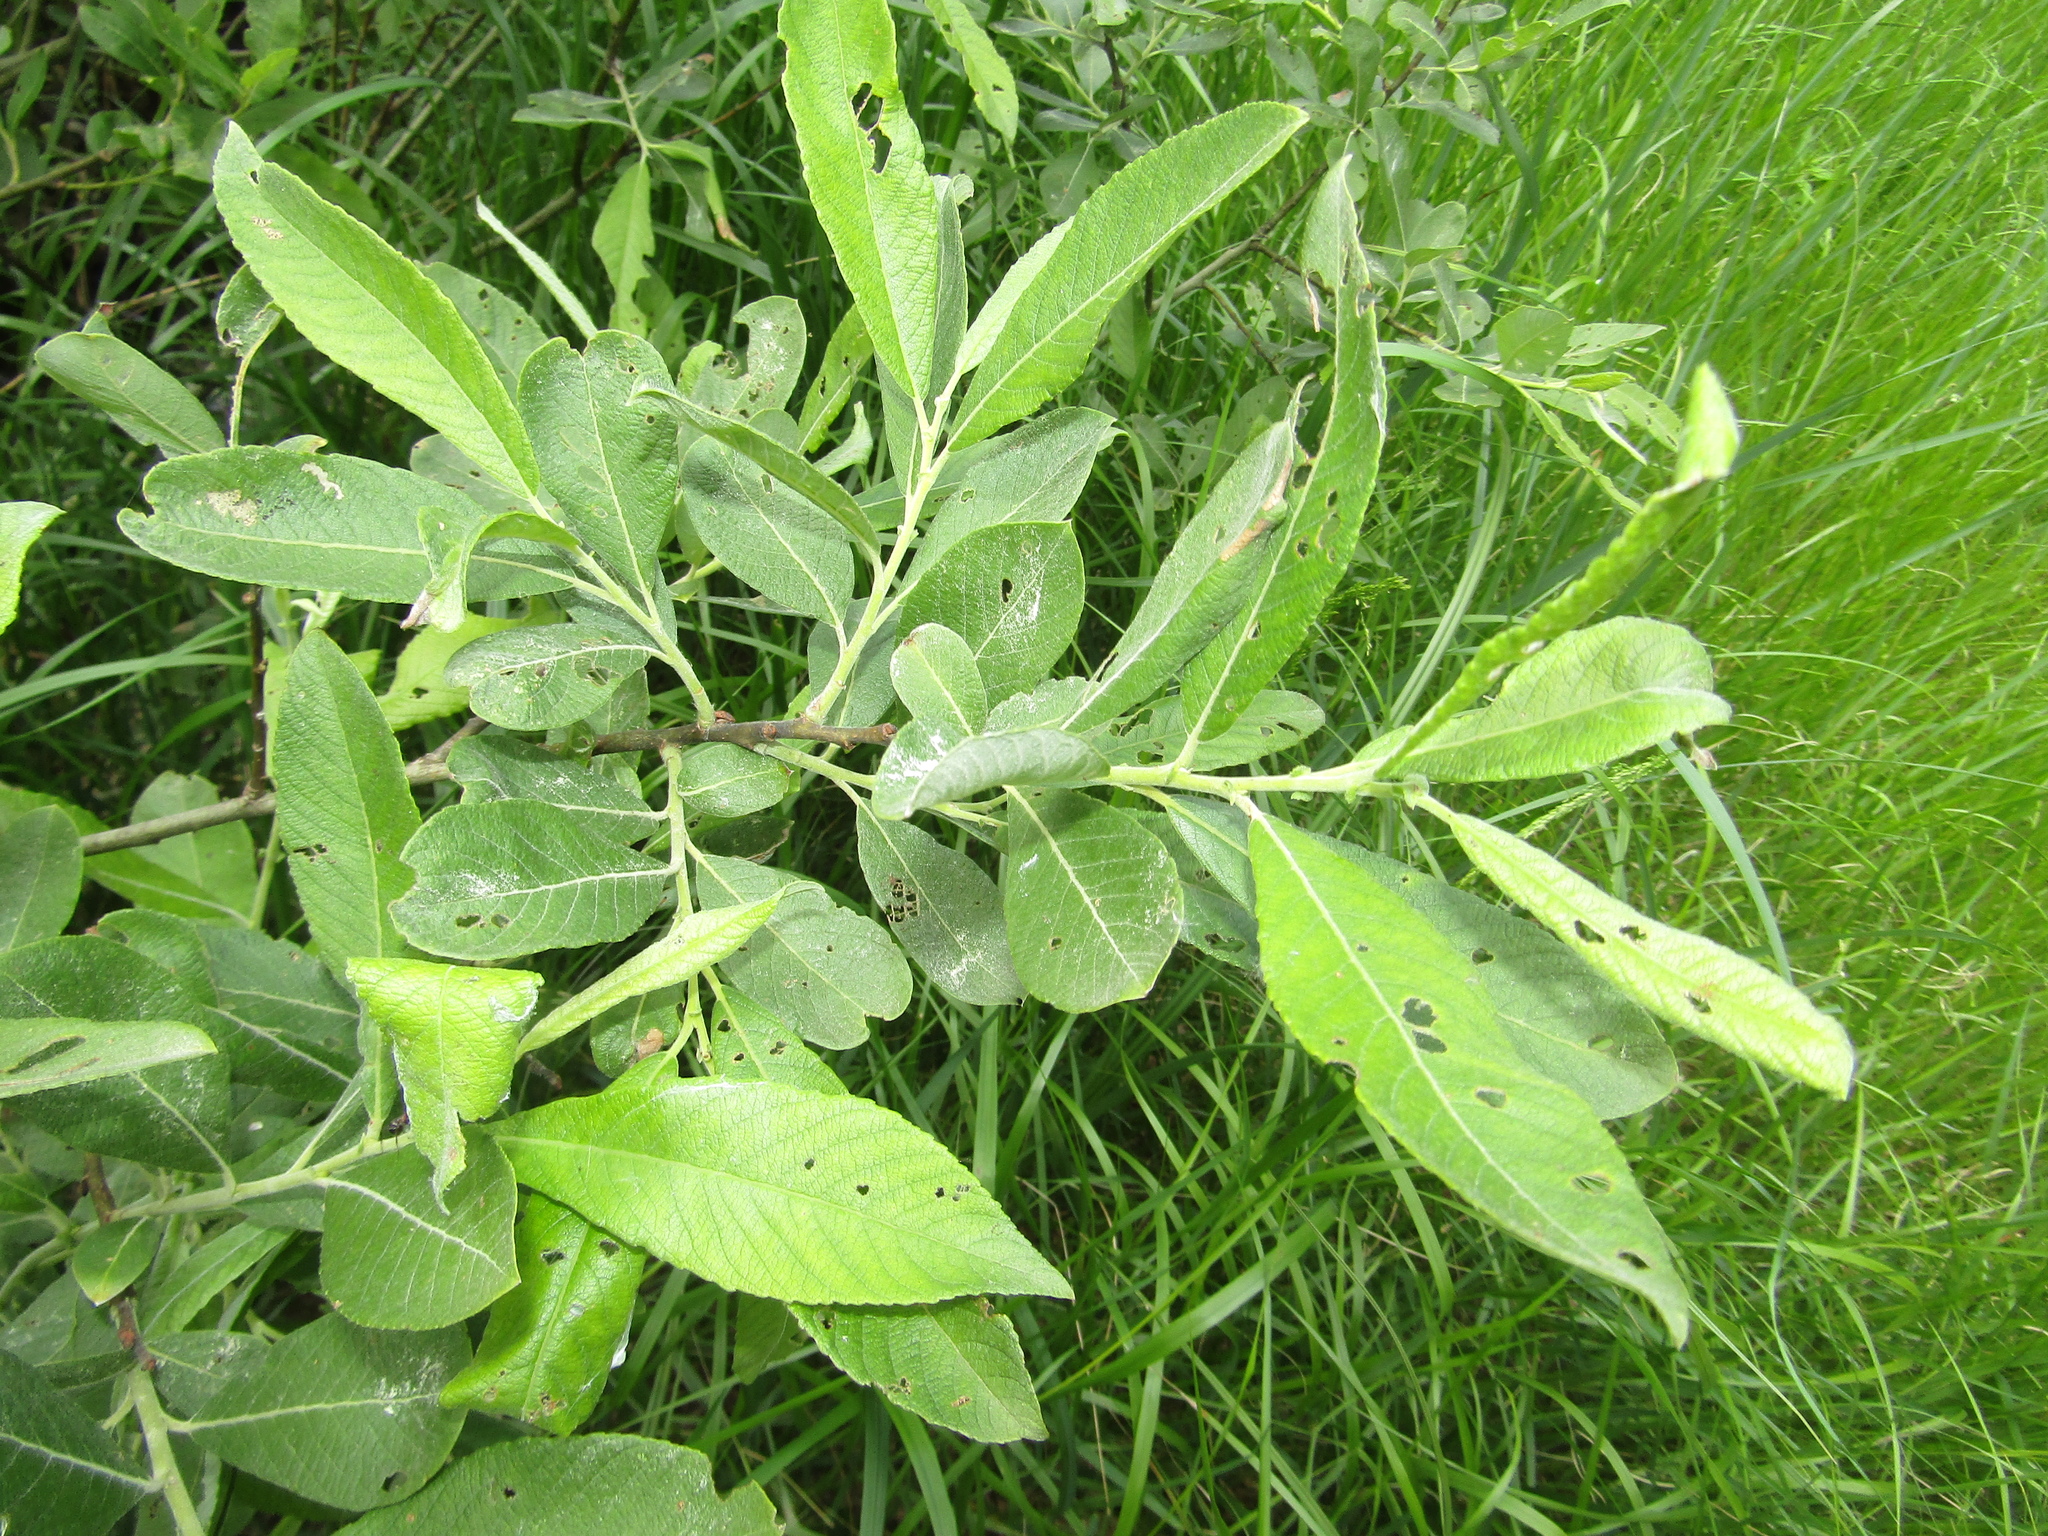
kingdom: Plantae
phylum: Tracheophyta
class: Magnoliopsida
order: Malpighiales
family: Salicaceae
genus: Salix
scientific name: Salix cinerea
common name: Common sallow
